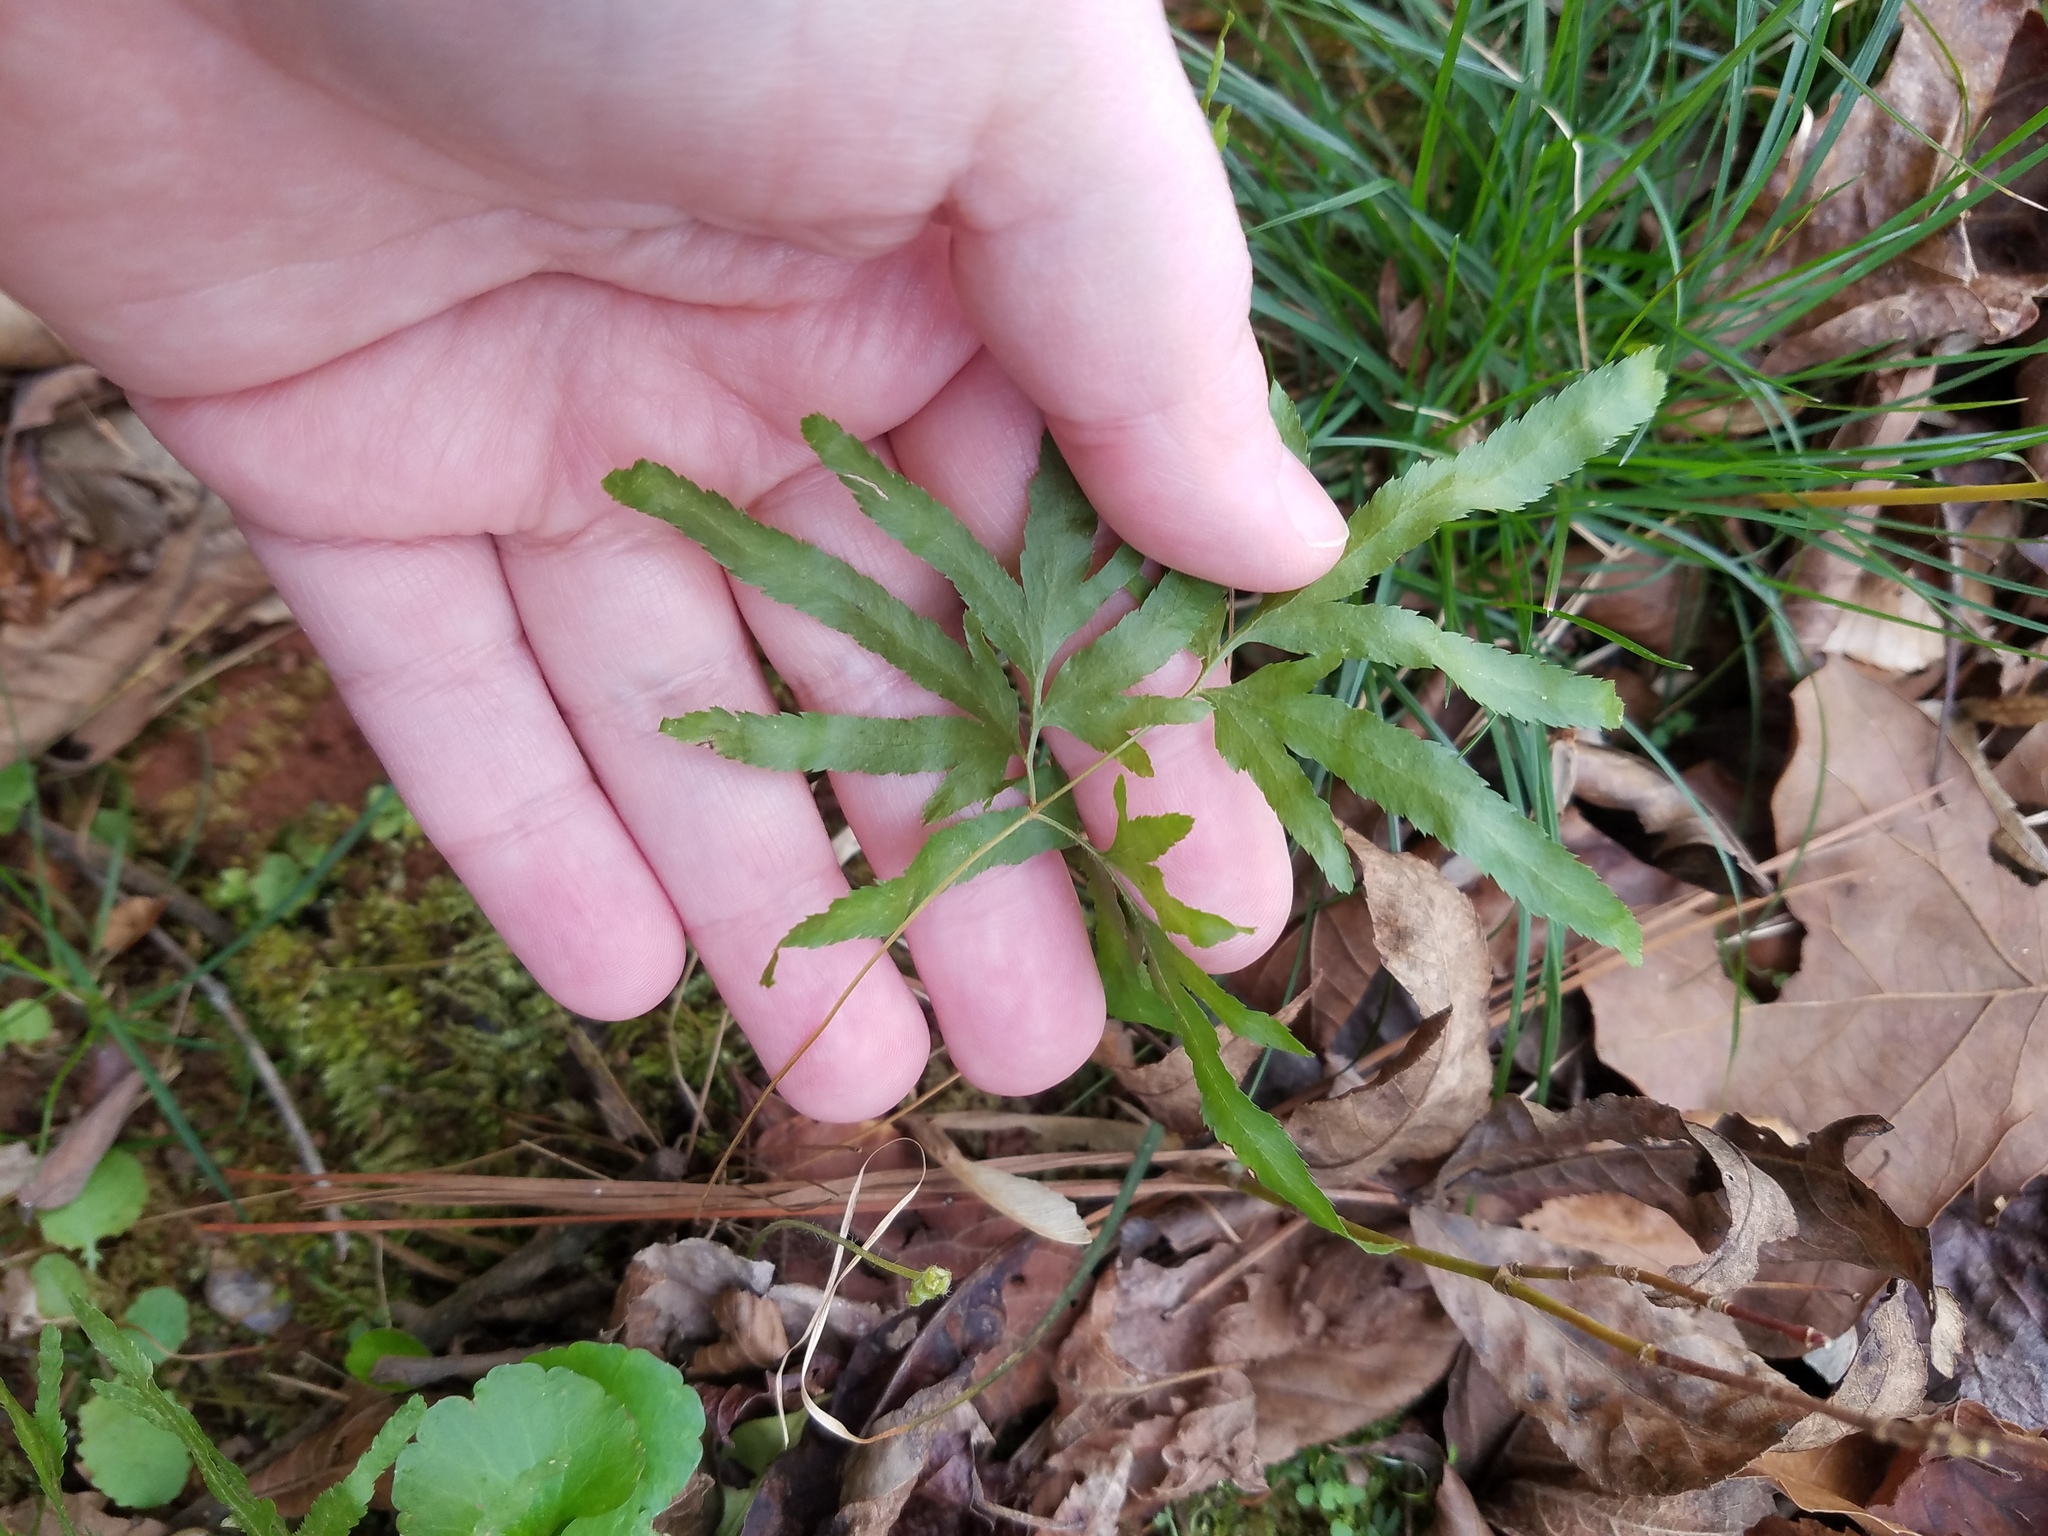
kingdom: Plantae
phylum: Tracheophyta
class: Polypodiopsida
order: Schizaeales
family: Lygodiaceae
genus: Lygodium
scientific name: Lygodium japonicum
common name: Japanese climbing fern
